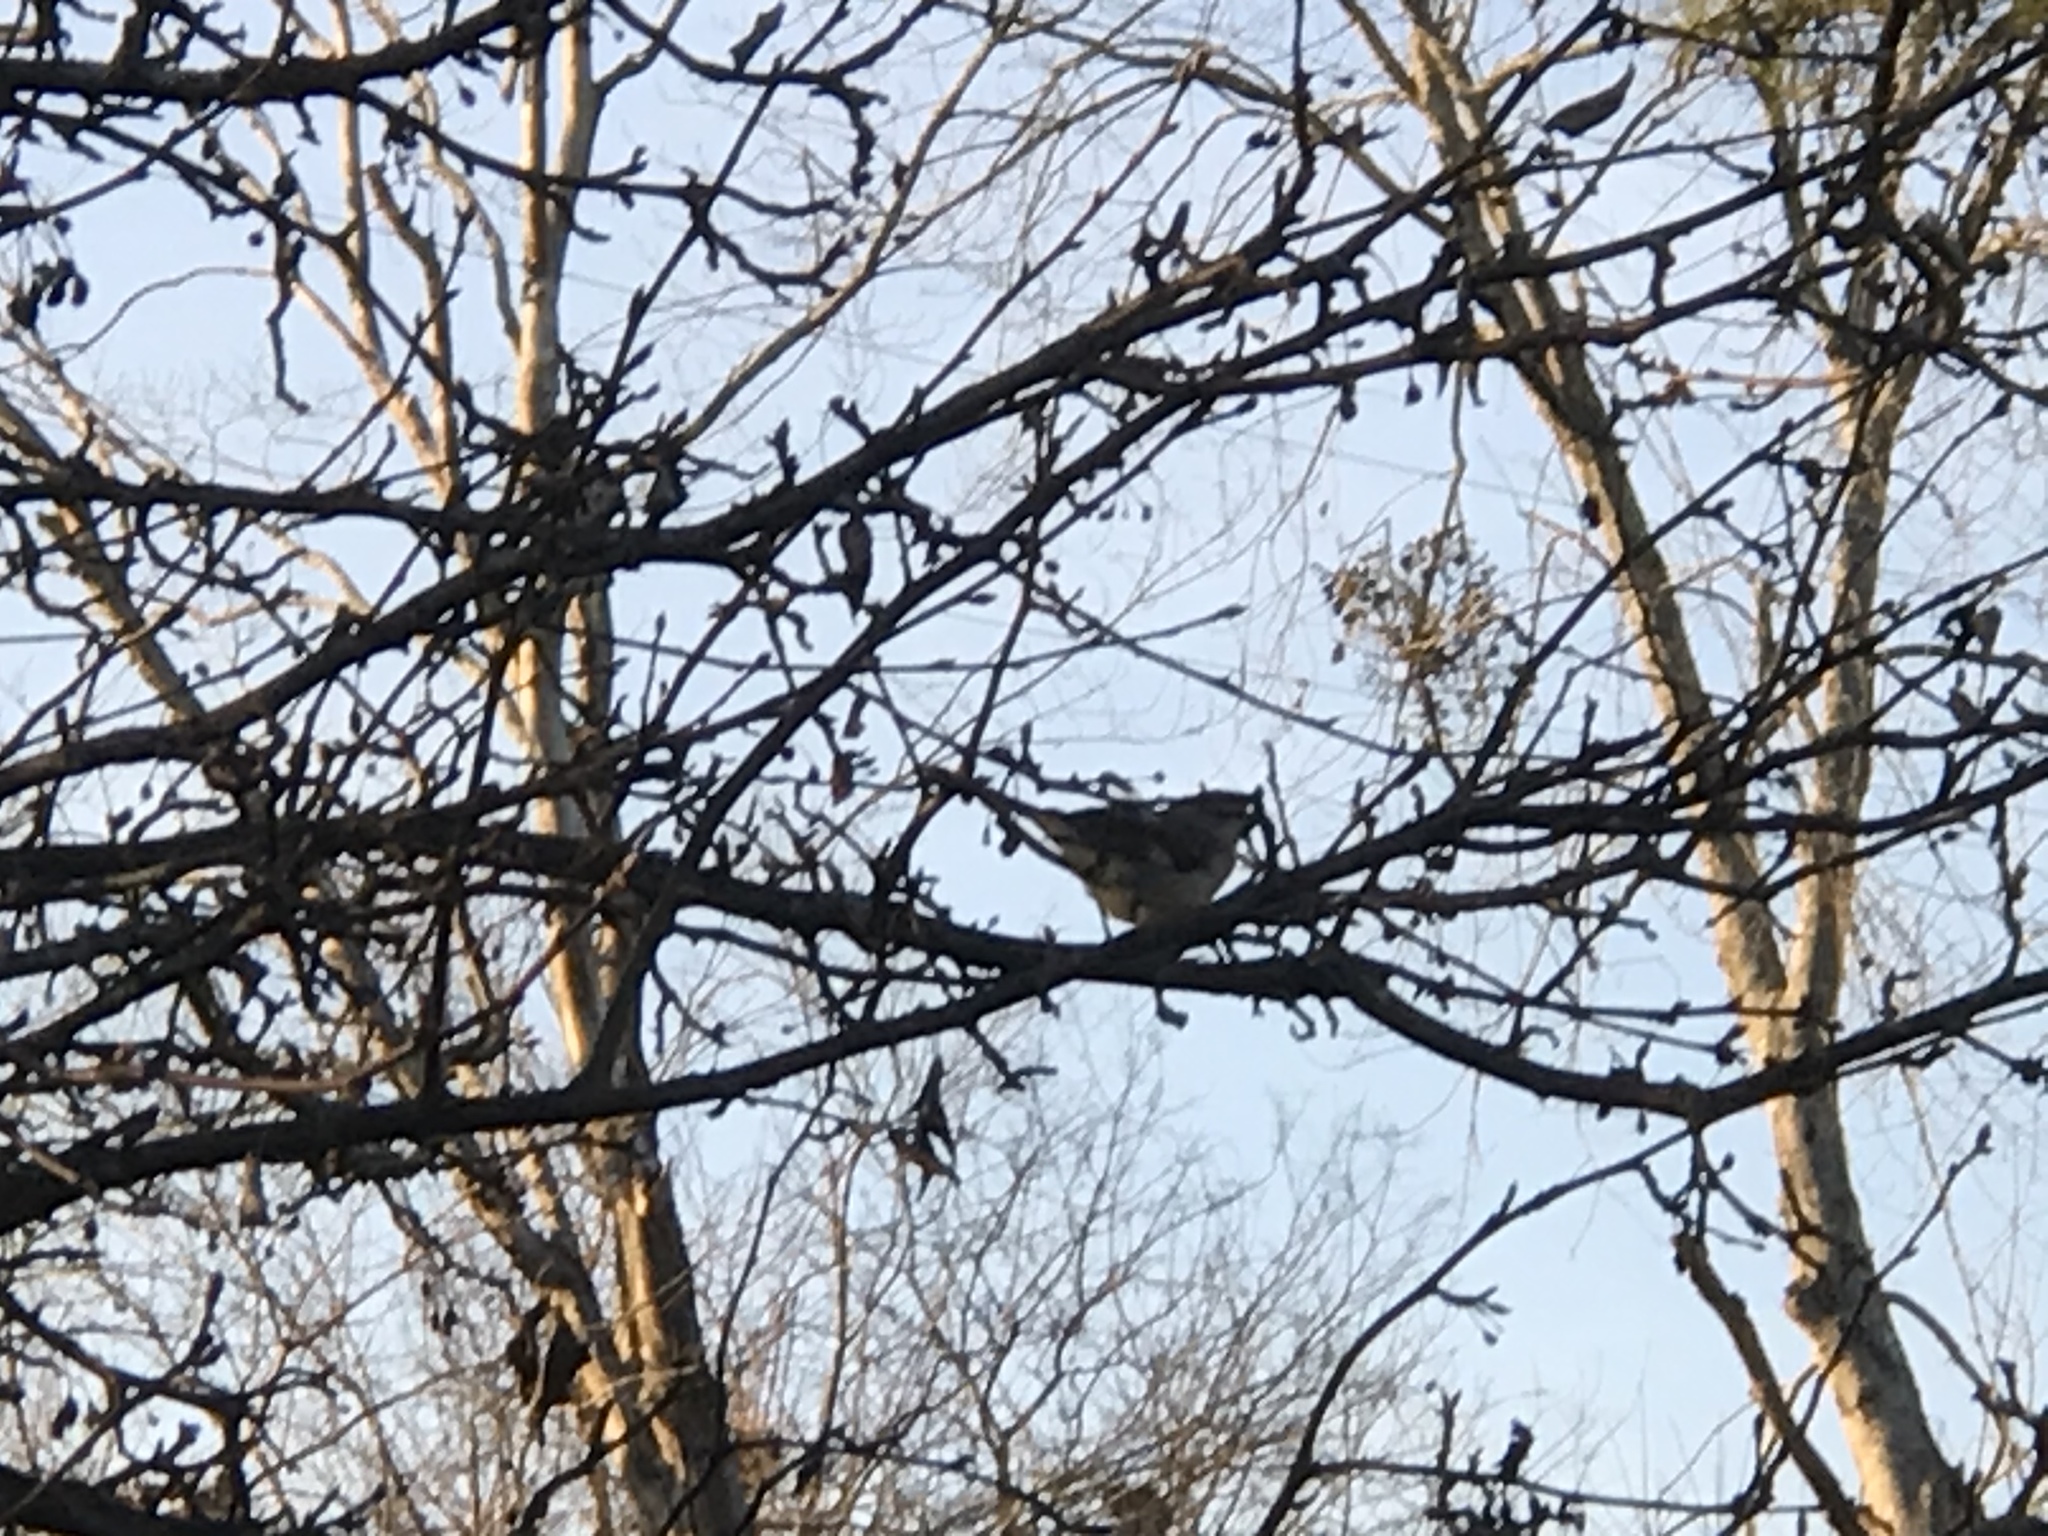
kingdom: Animalia
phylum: Chordata
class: Aves
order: Passeriformes
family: Mimidae
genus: Mimus
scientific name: Mimus polyglottos
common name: Northern mockingbird
